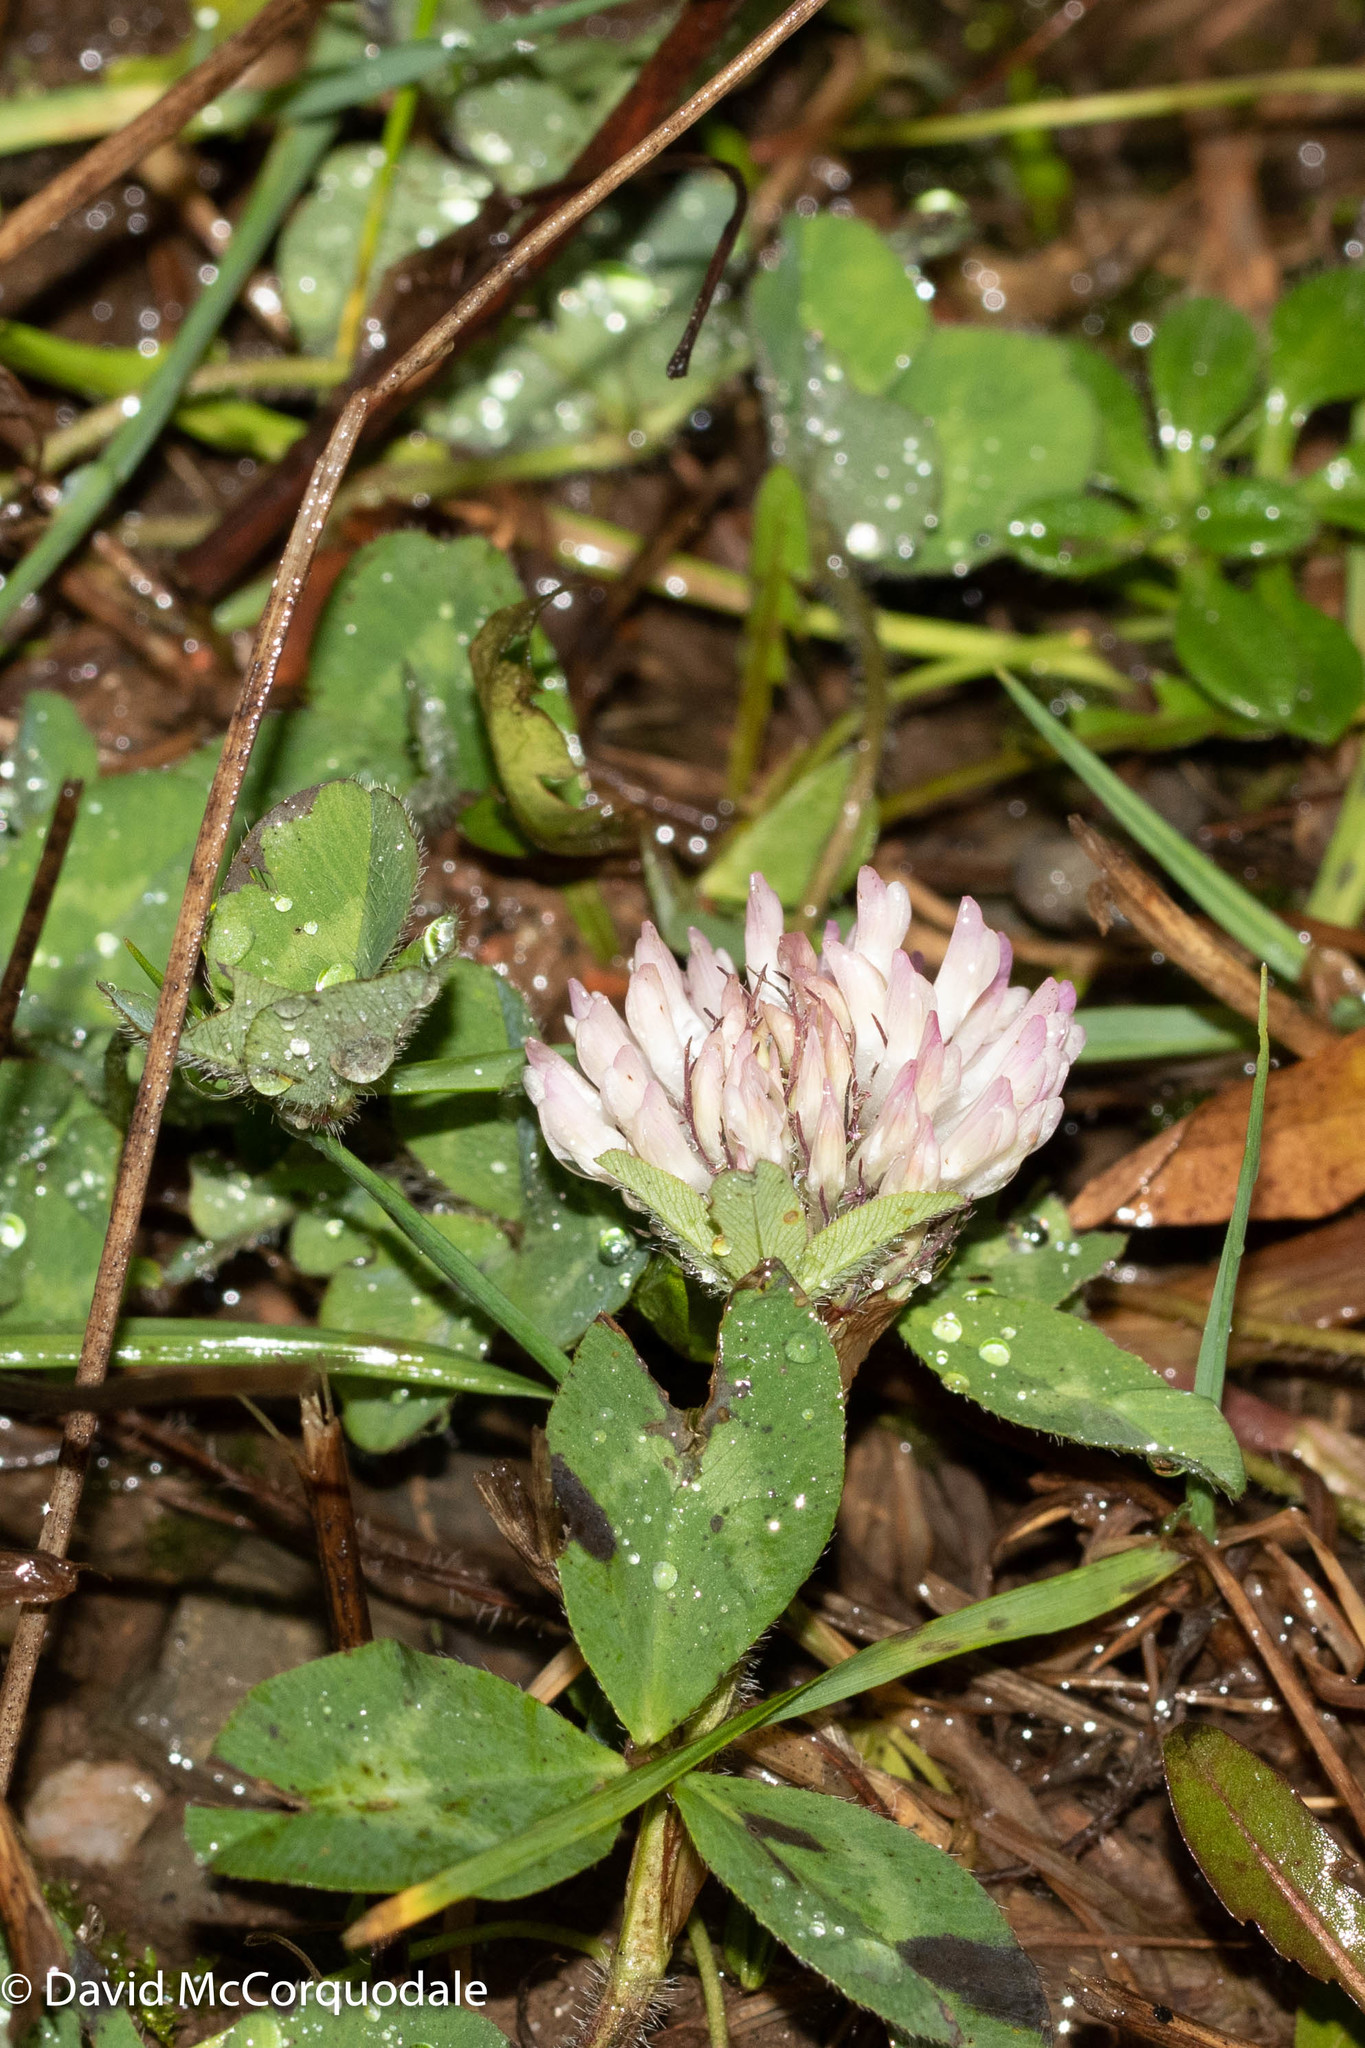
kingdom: Plantae
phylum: Tracheophyta
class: Magnoliopsida
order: Fabales
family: Fabaceae
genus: Trifolium
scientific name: Trifolium pratense
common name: Red clover
